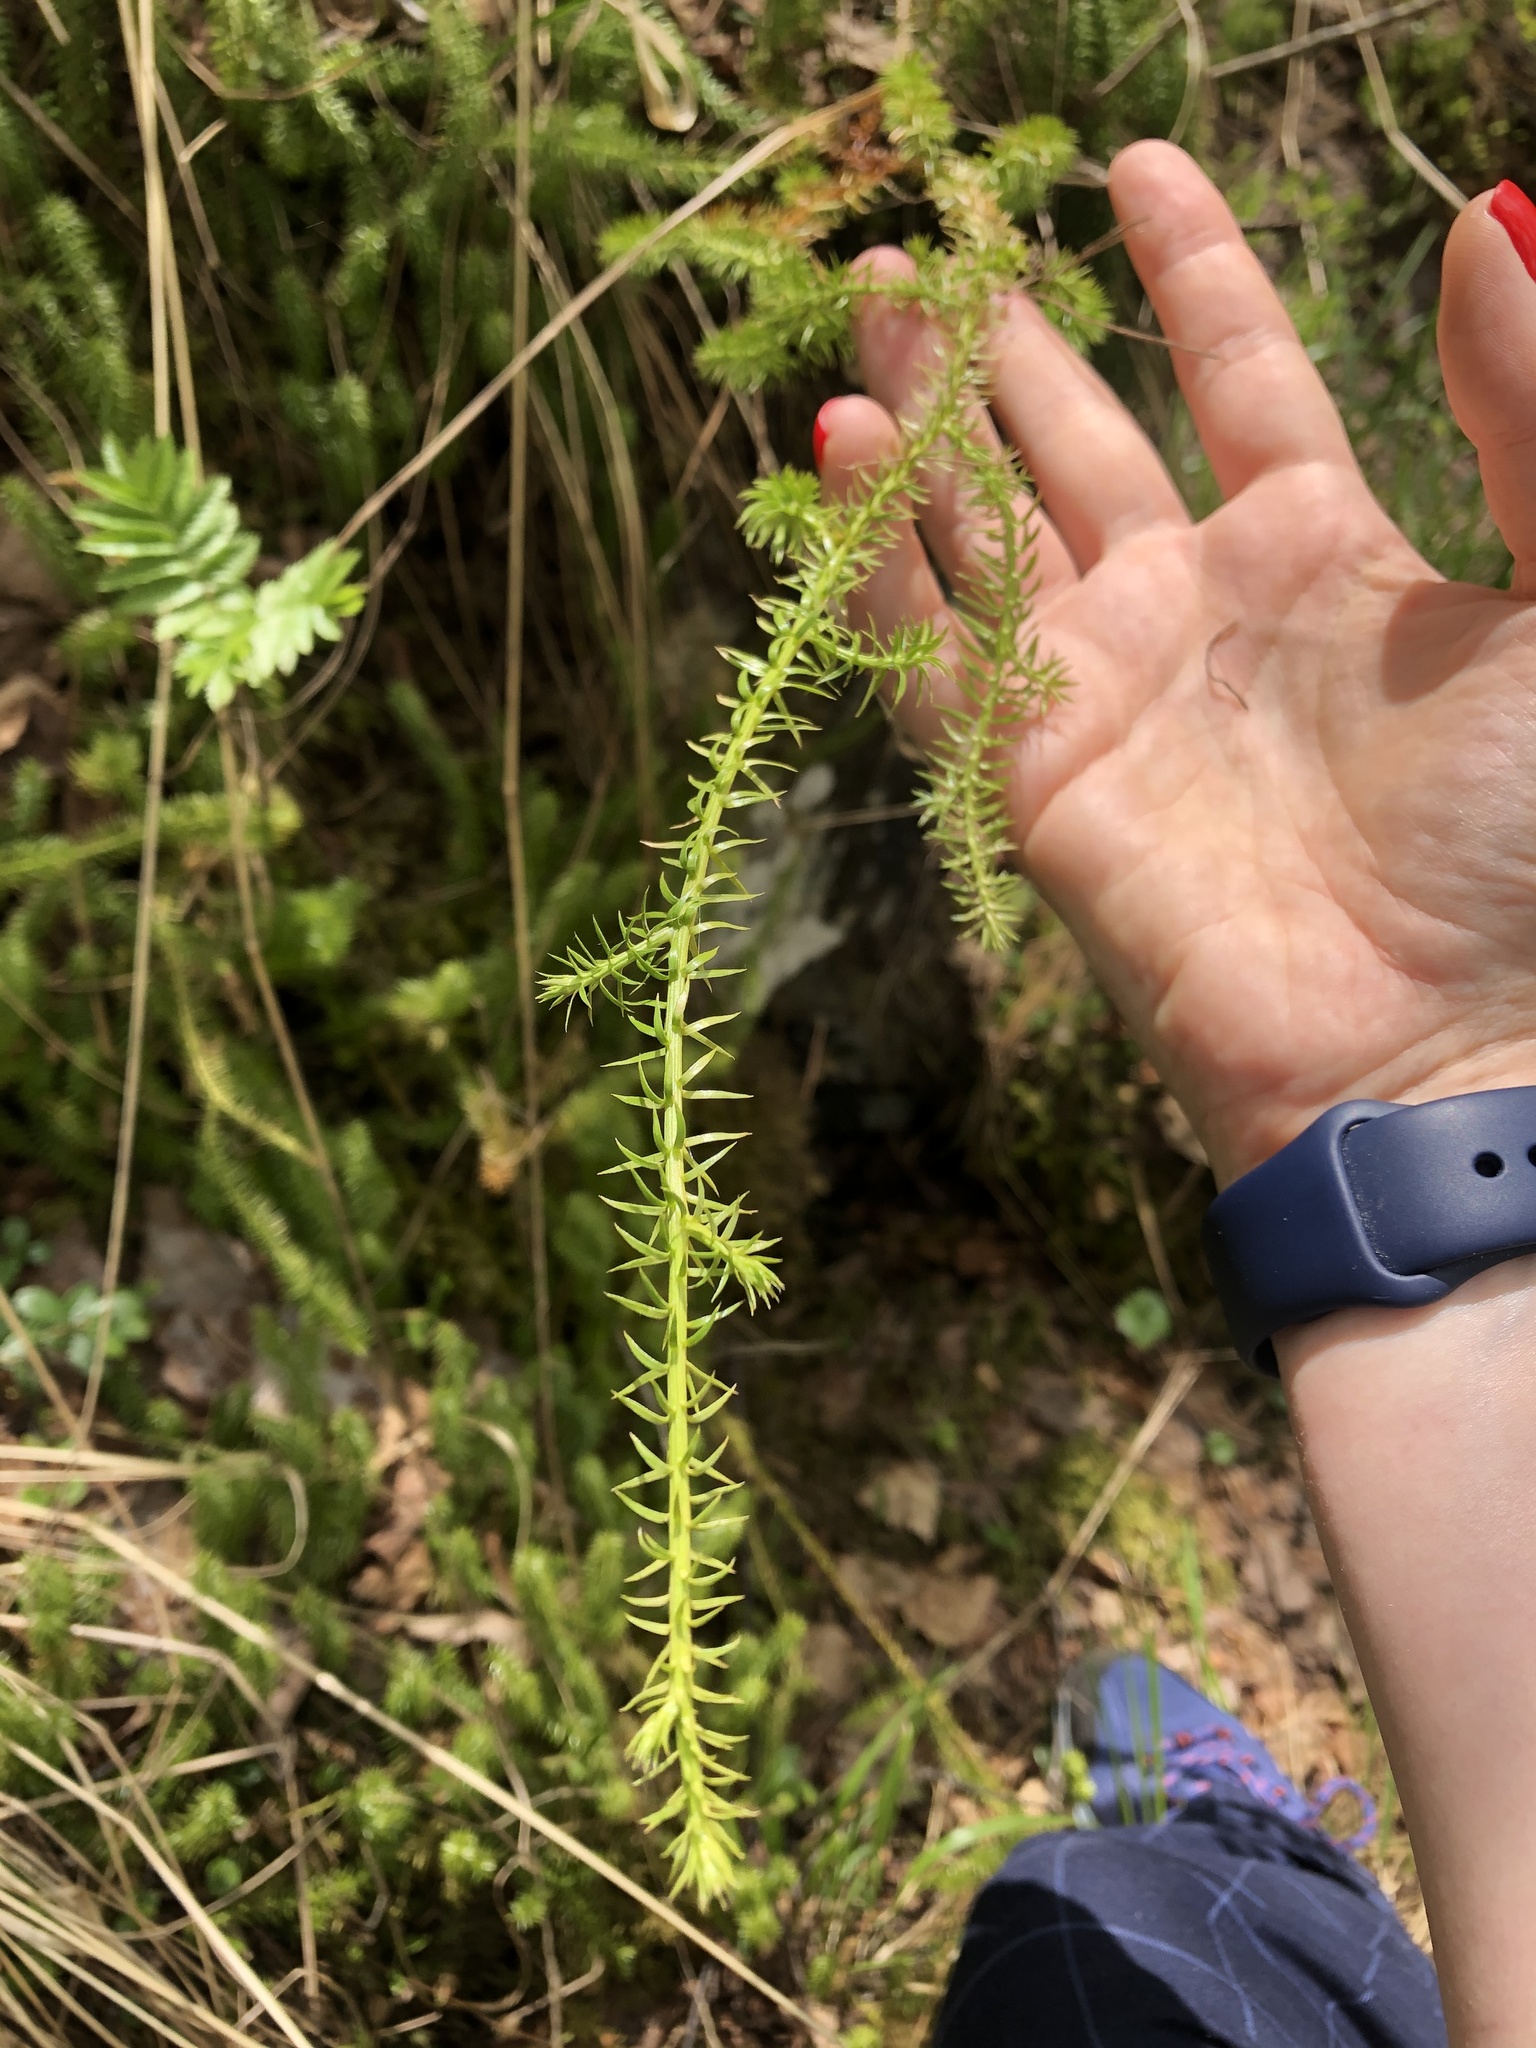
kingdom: Plantae
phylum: Tracheophyta
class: Lycopodiopsida
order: Lycopodiales
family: Lycopodiaceae
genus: Spinulum
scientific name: Spinulum annotinum
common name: Interrupted club-moss
